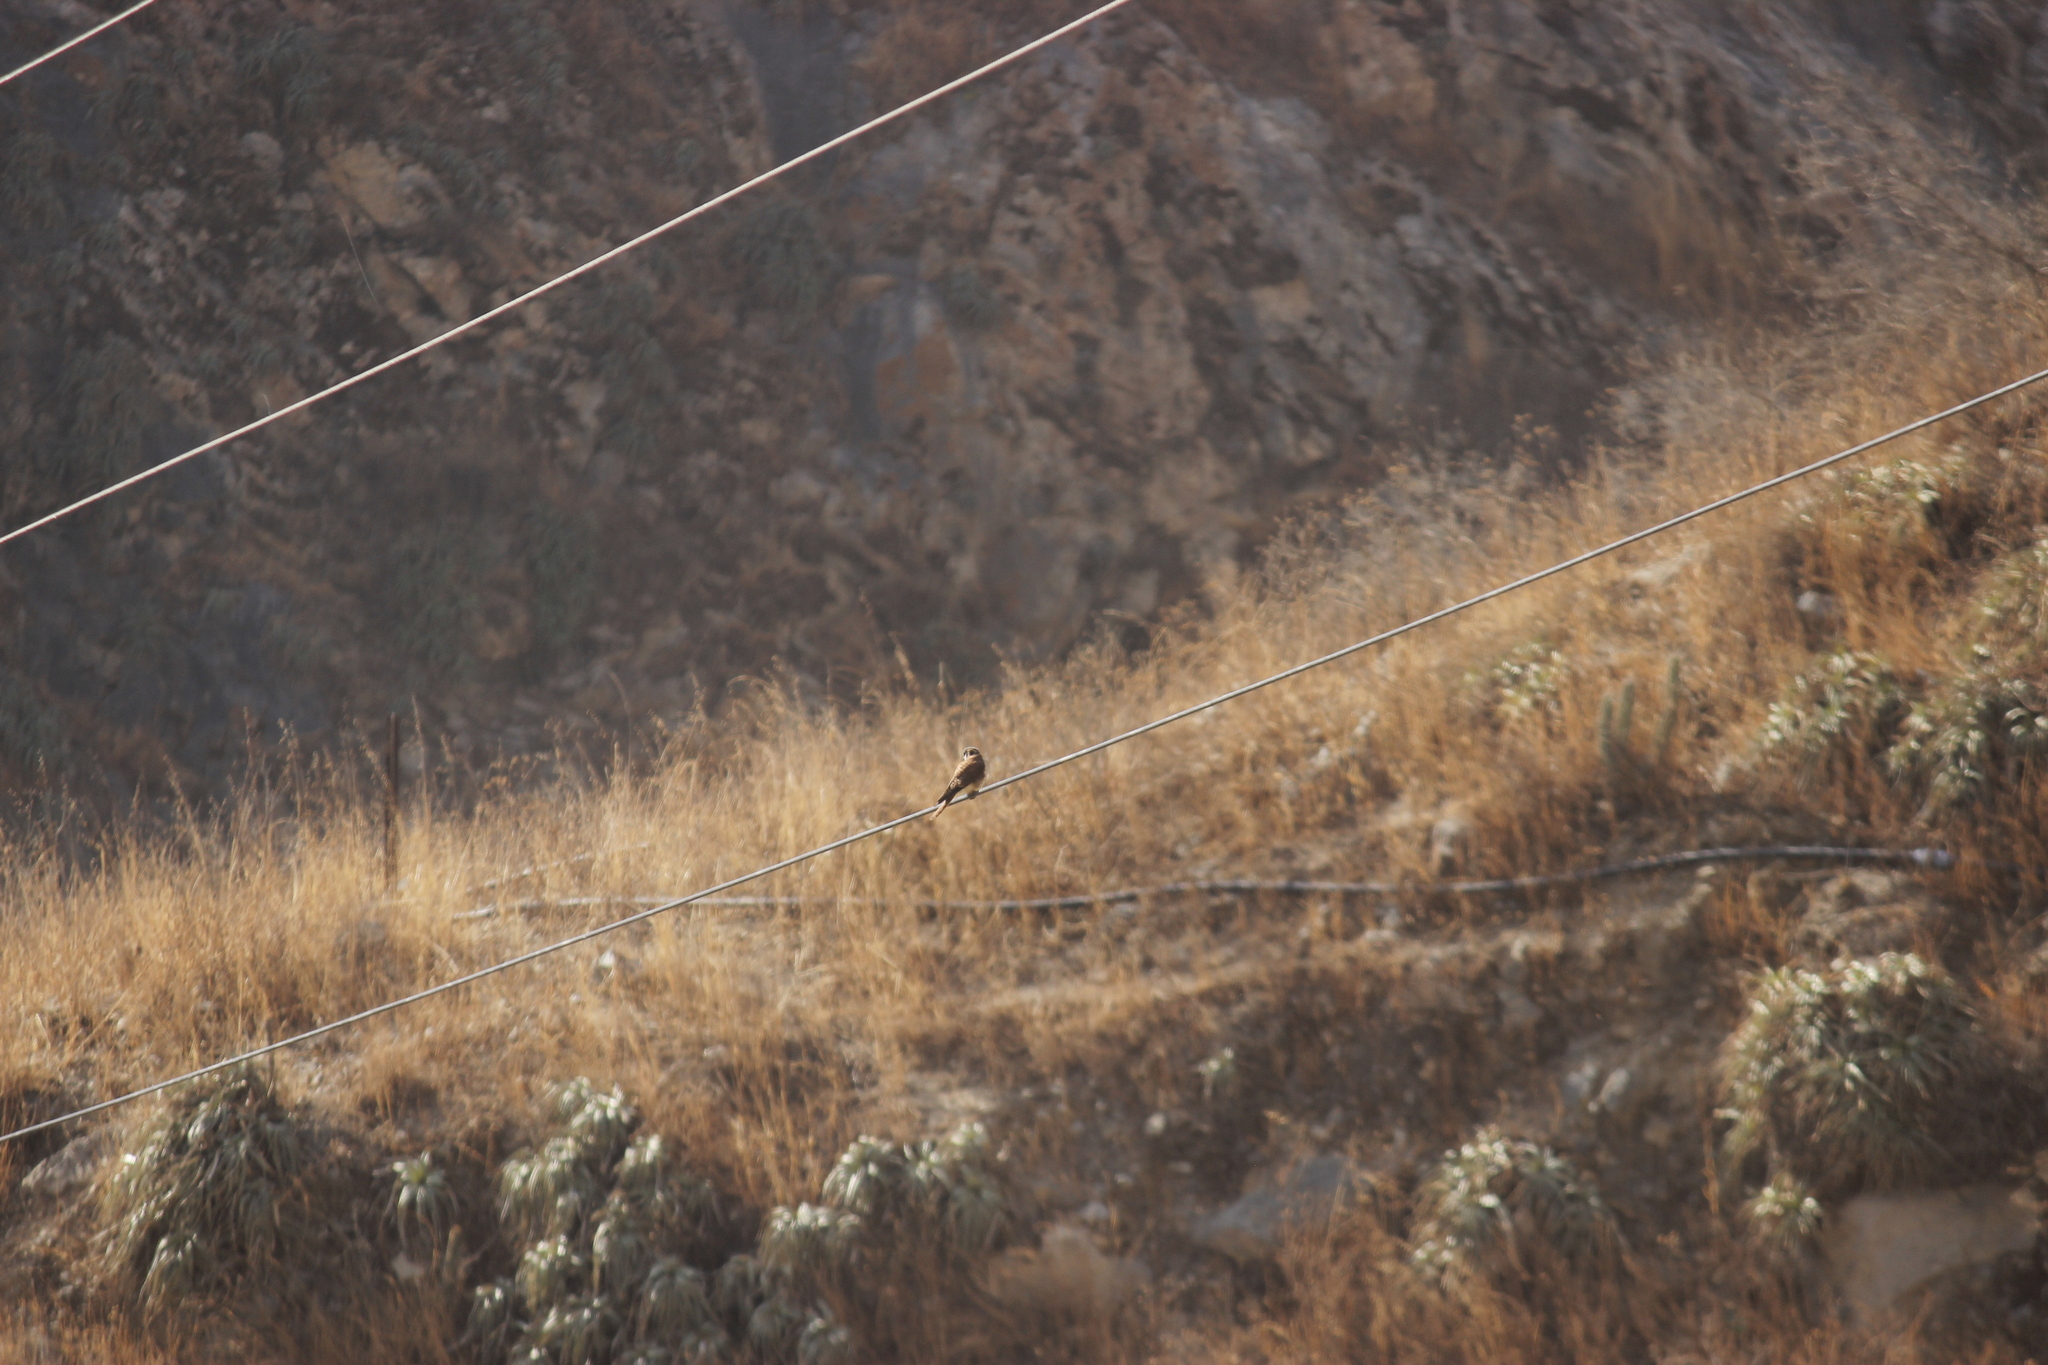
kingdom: Animalia
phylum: Chordata
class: Aves
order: Falconiformes
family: Falconidae
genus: Falco
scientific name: Falco sparverius
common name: American kestrel
